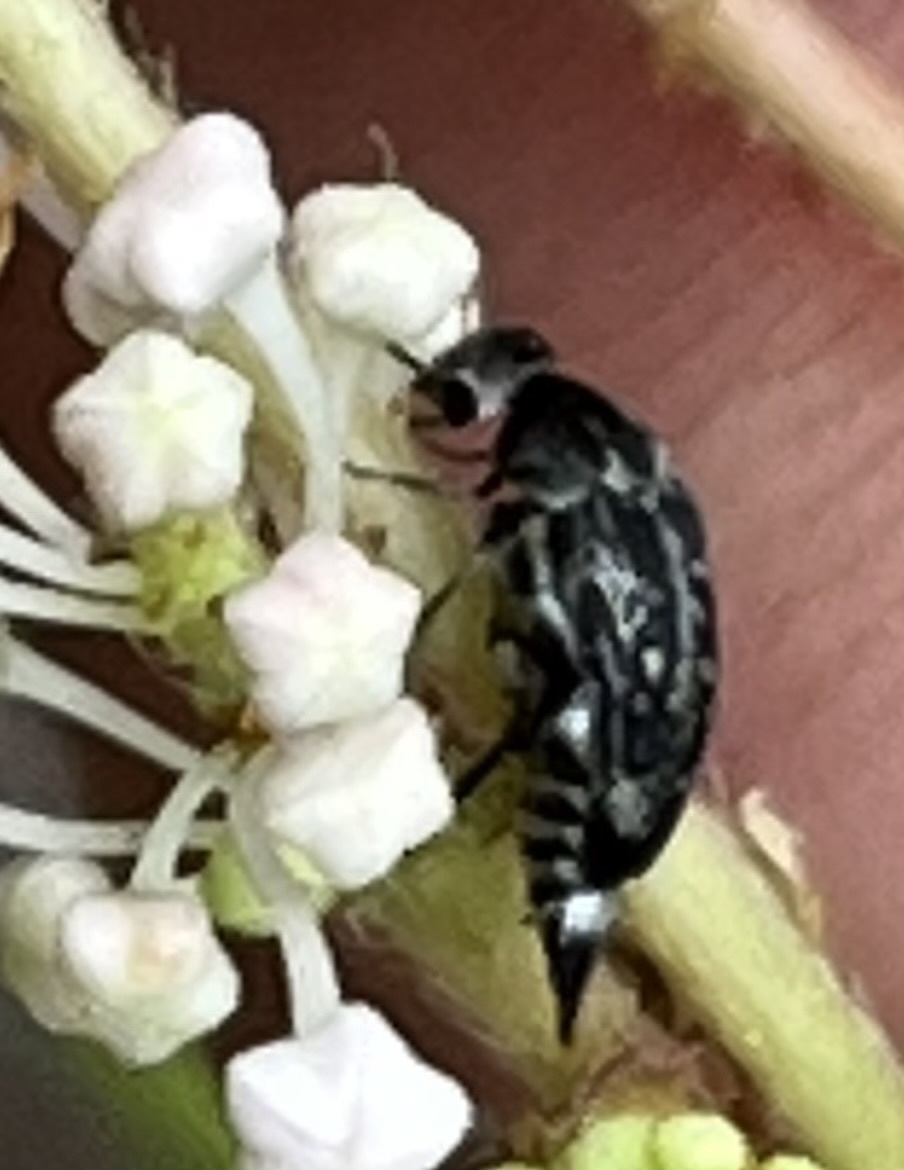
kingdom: Animalia
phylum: Arthropoda
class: Insecta
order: Coleoptera
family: Mordellidae
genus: Mordella
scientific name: Mordella marginata
